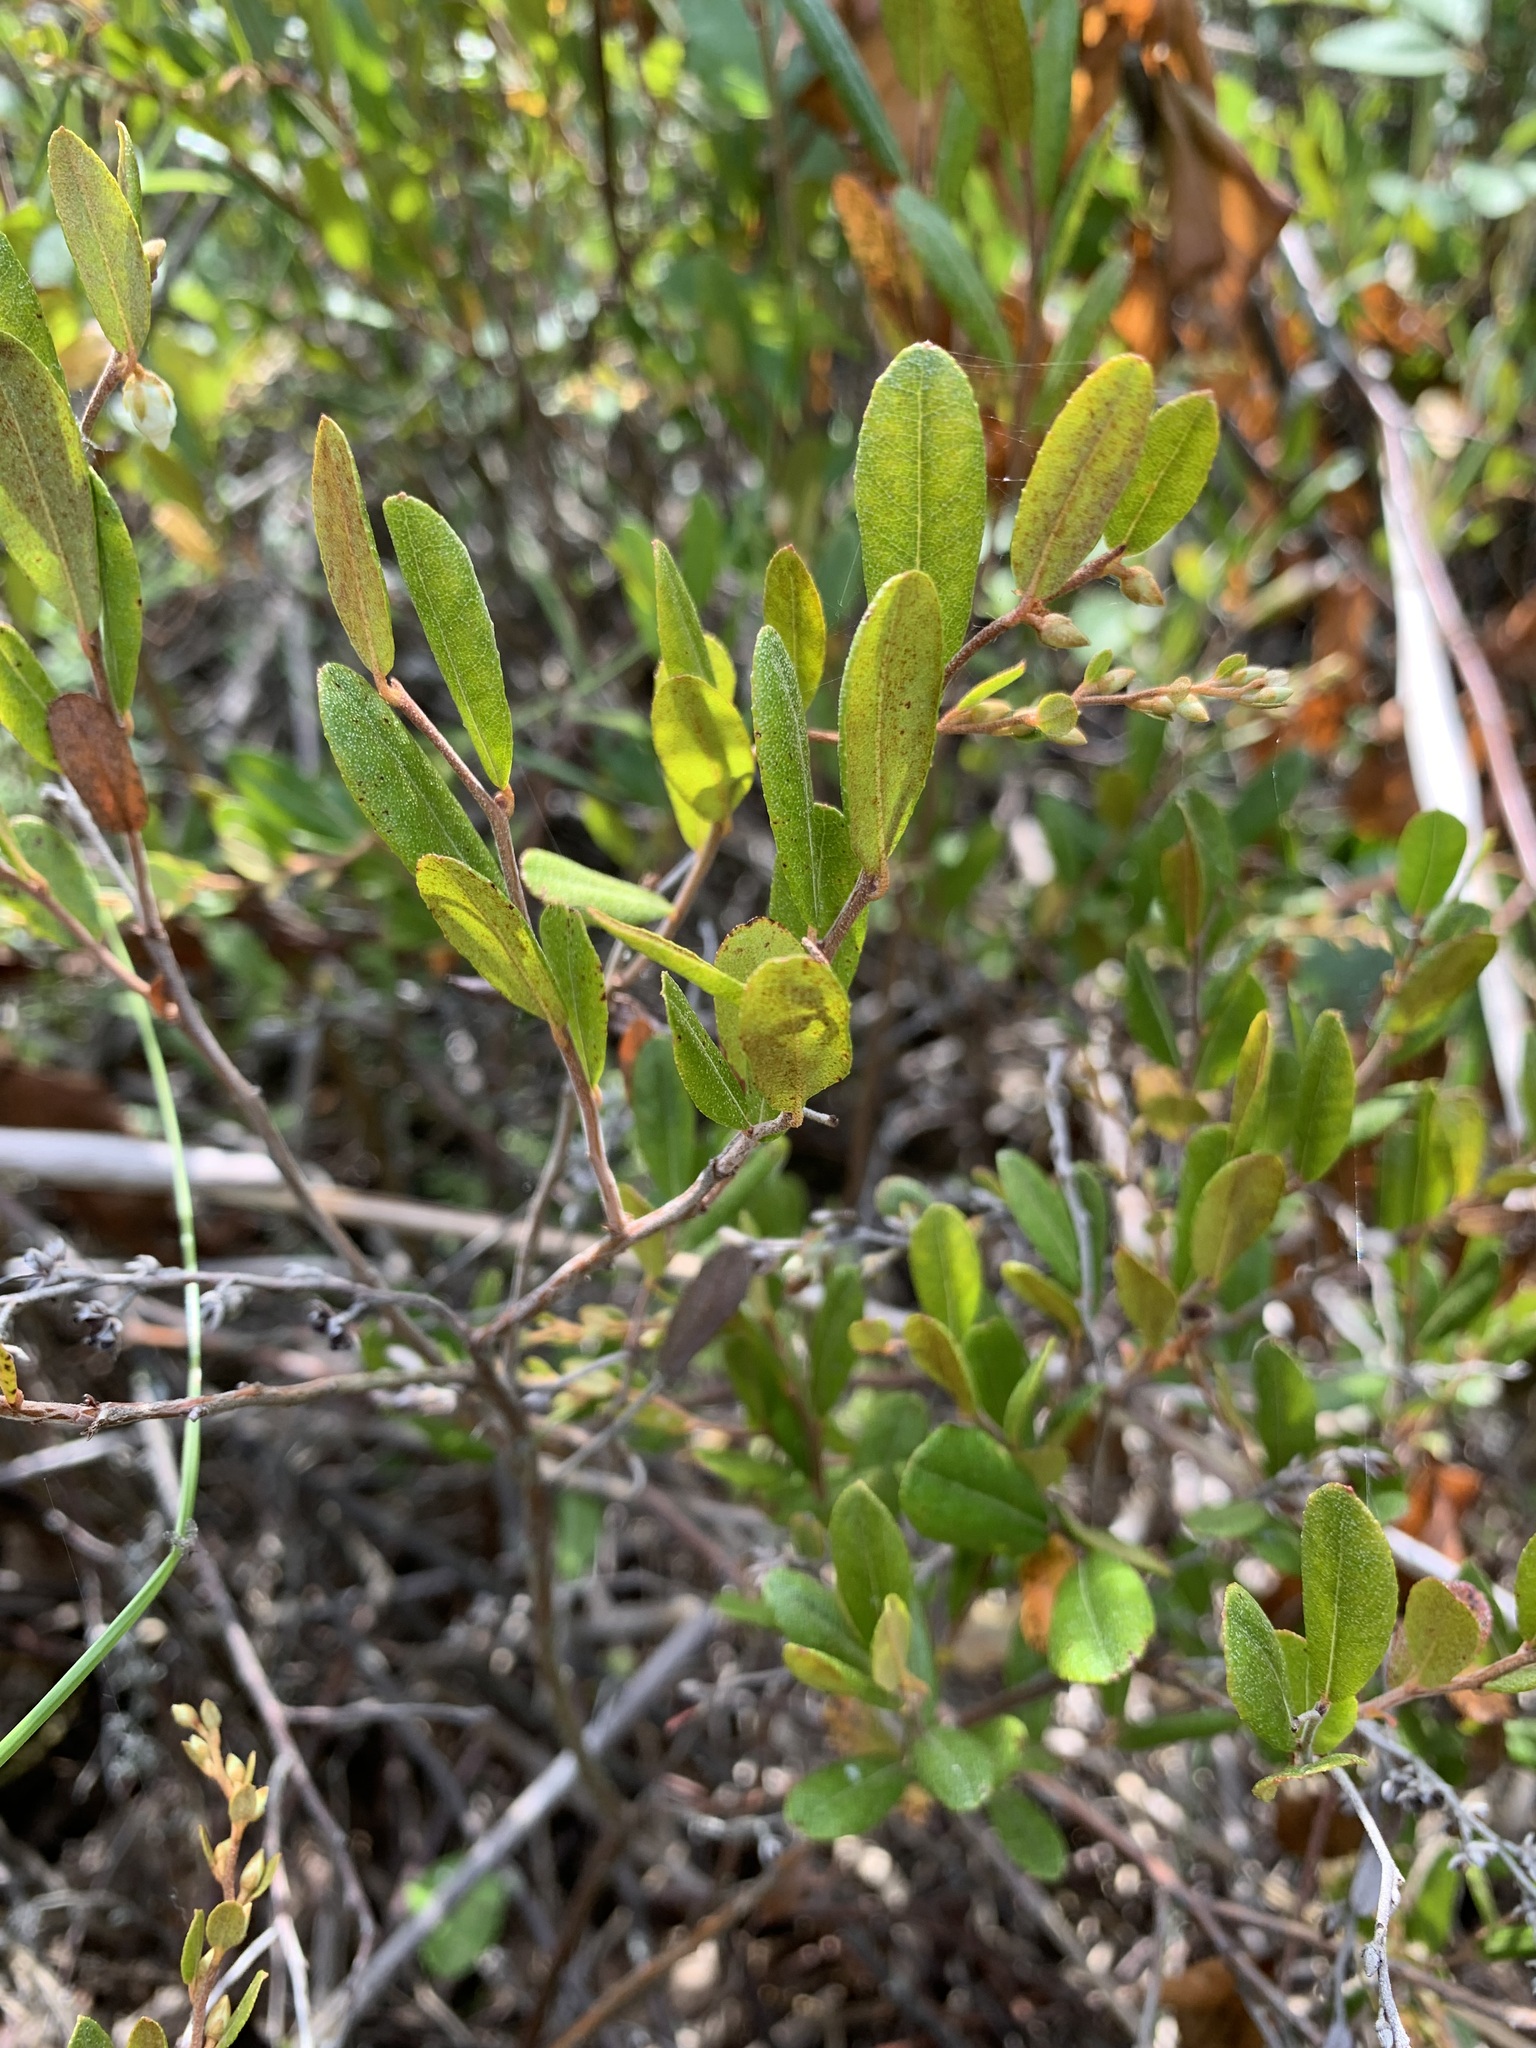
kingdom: Plantae
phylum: Tracheophyta
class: Magnoliopsida
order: Ericales
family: Ericaceae
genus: Chamaedaphne
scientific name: Chamaedaphne calyculata
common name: Leatherleaf
